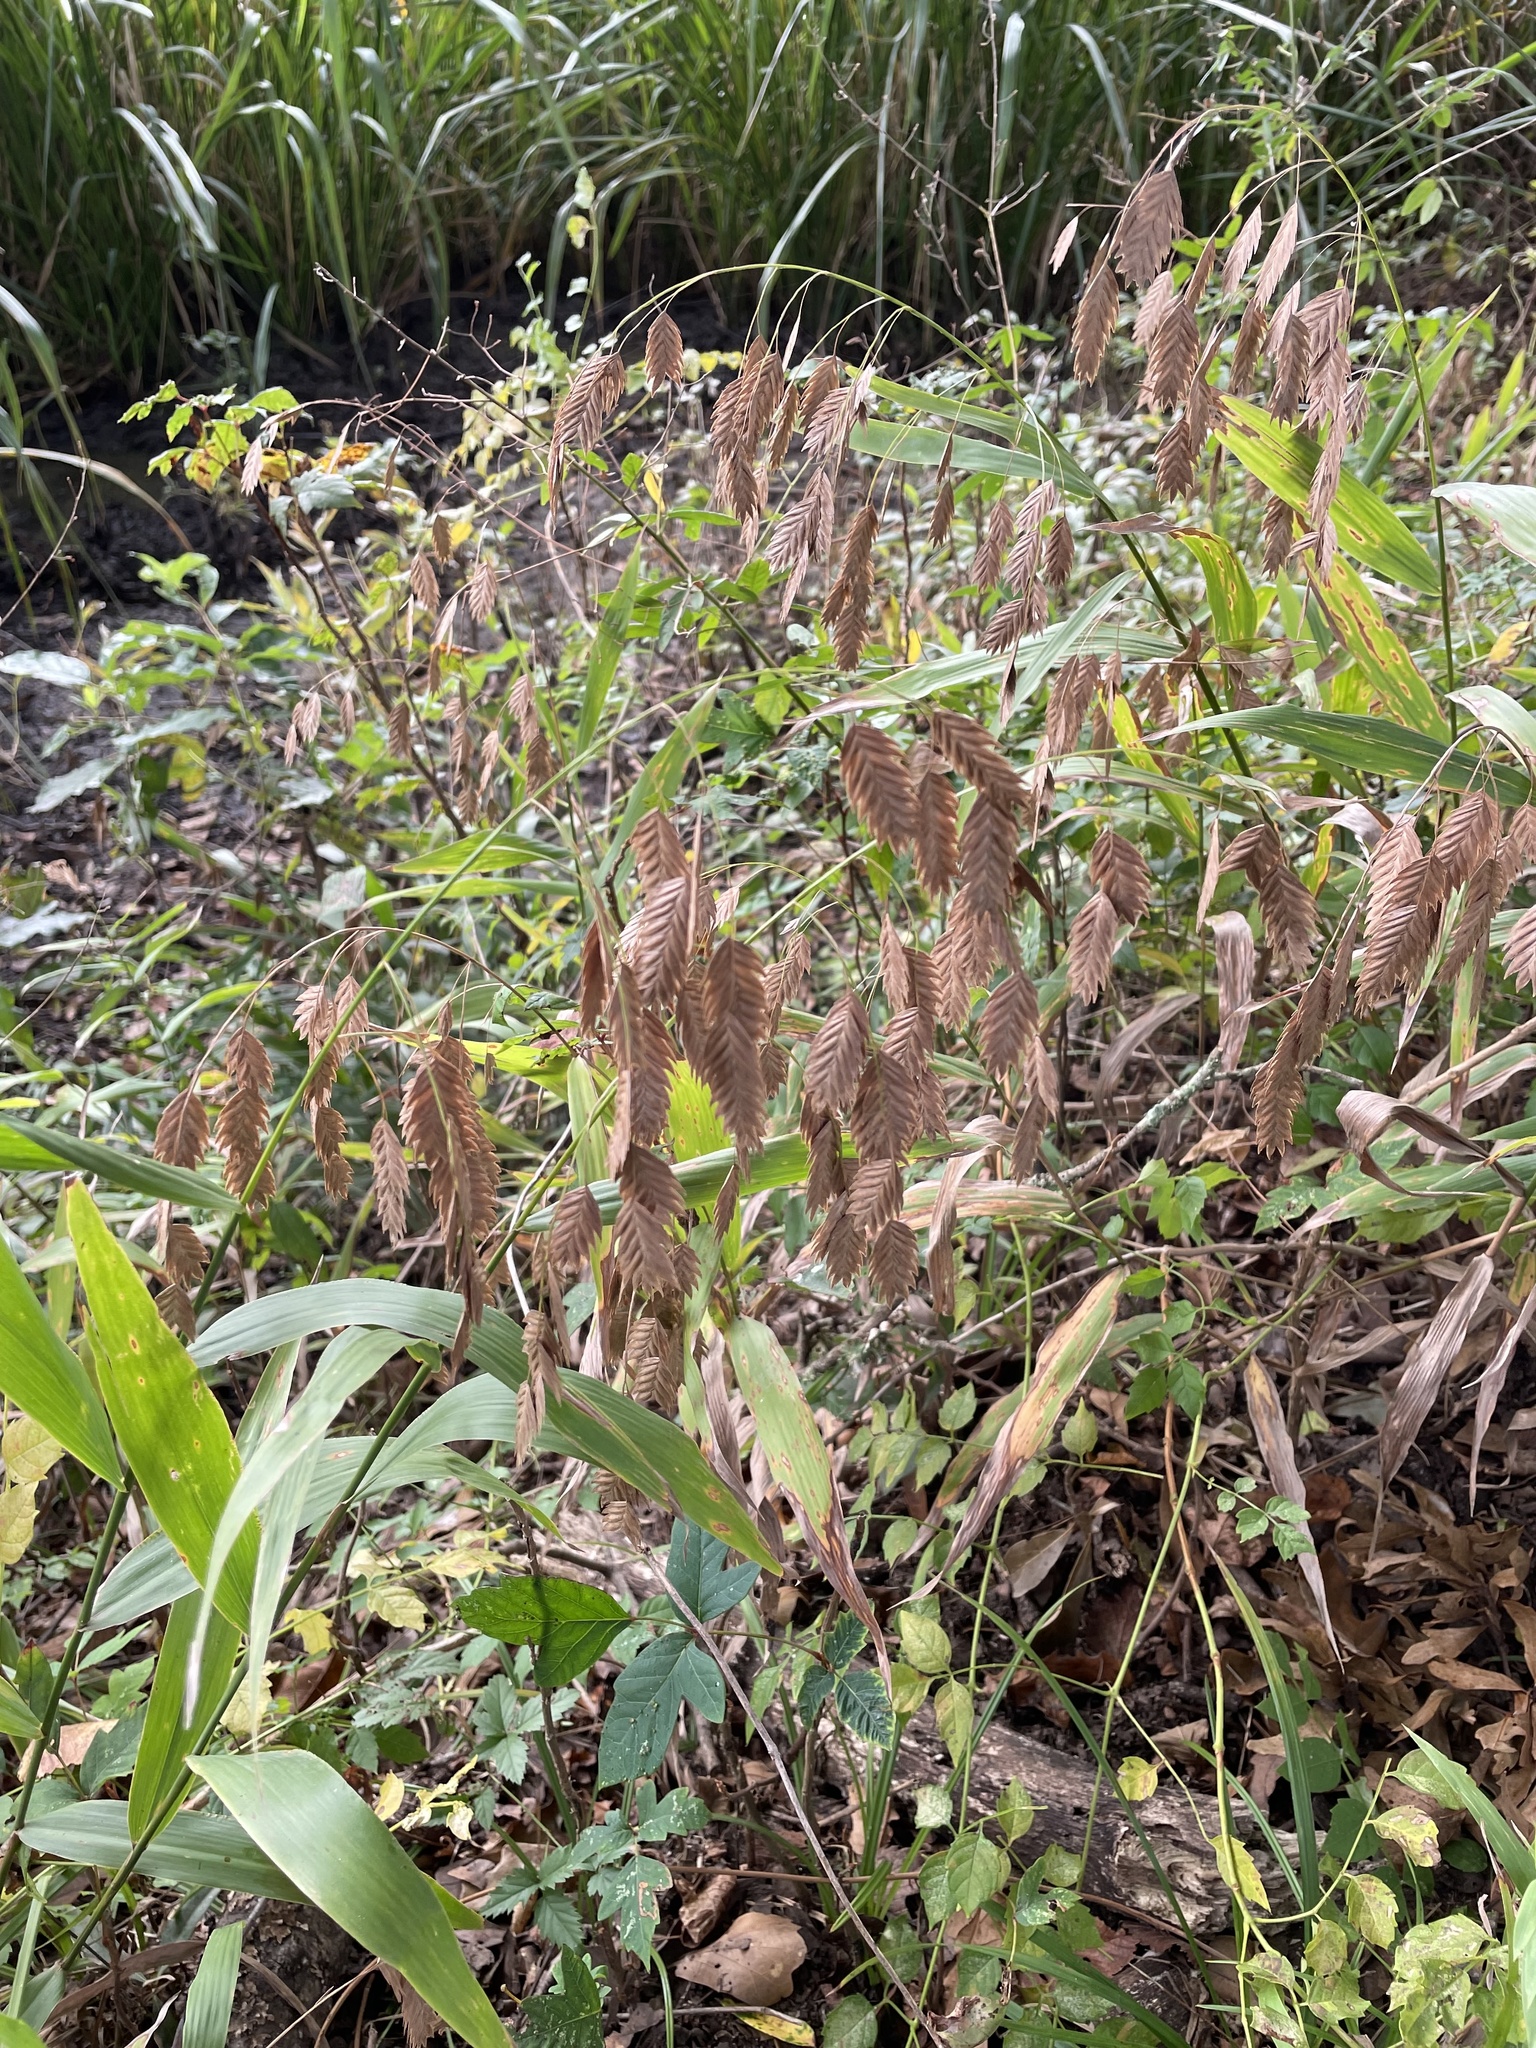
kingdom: Plantae
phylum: Tracheophyta
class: Liliopsida
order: Poales
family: Poaceae
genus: Chasmanthium
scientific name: Chasmanthium latifolium
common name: Broad-leaved chasmanthium
